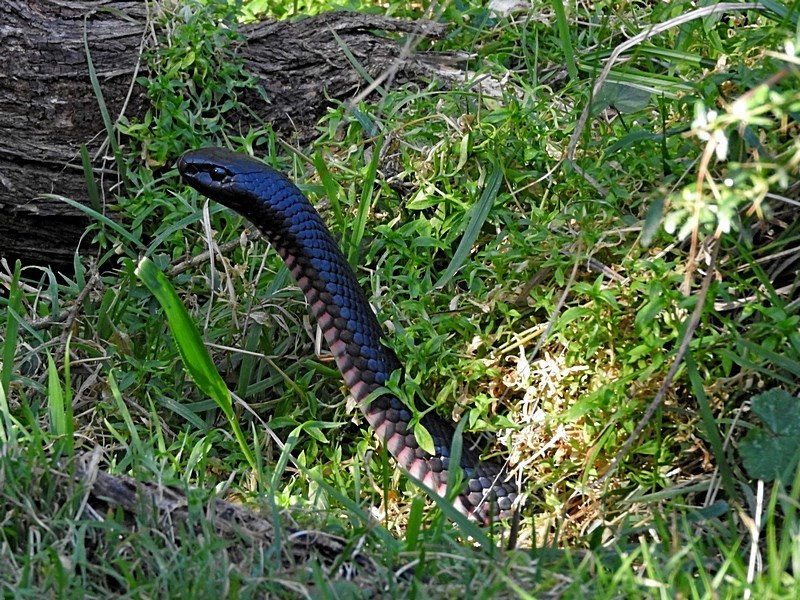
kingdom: Animalia
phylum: Chordata
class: Squamata
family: Elapidae
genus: Pseudechis
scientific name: Pseudechis porphyriacus
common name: Australian black snake
